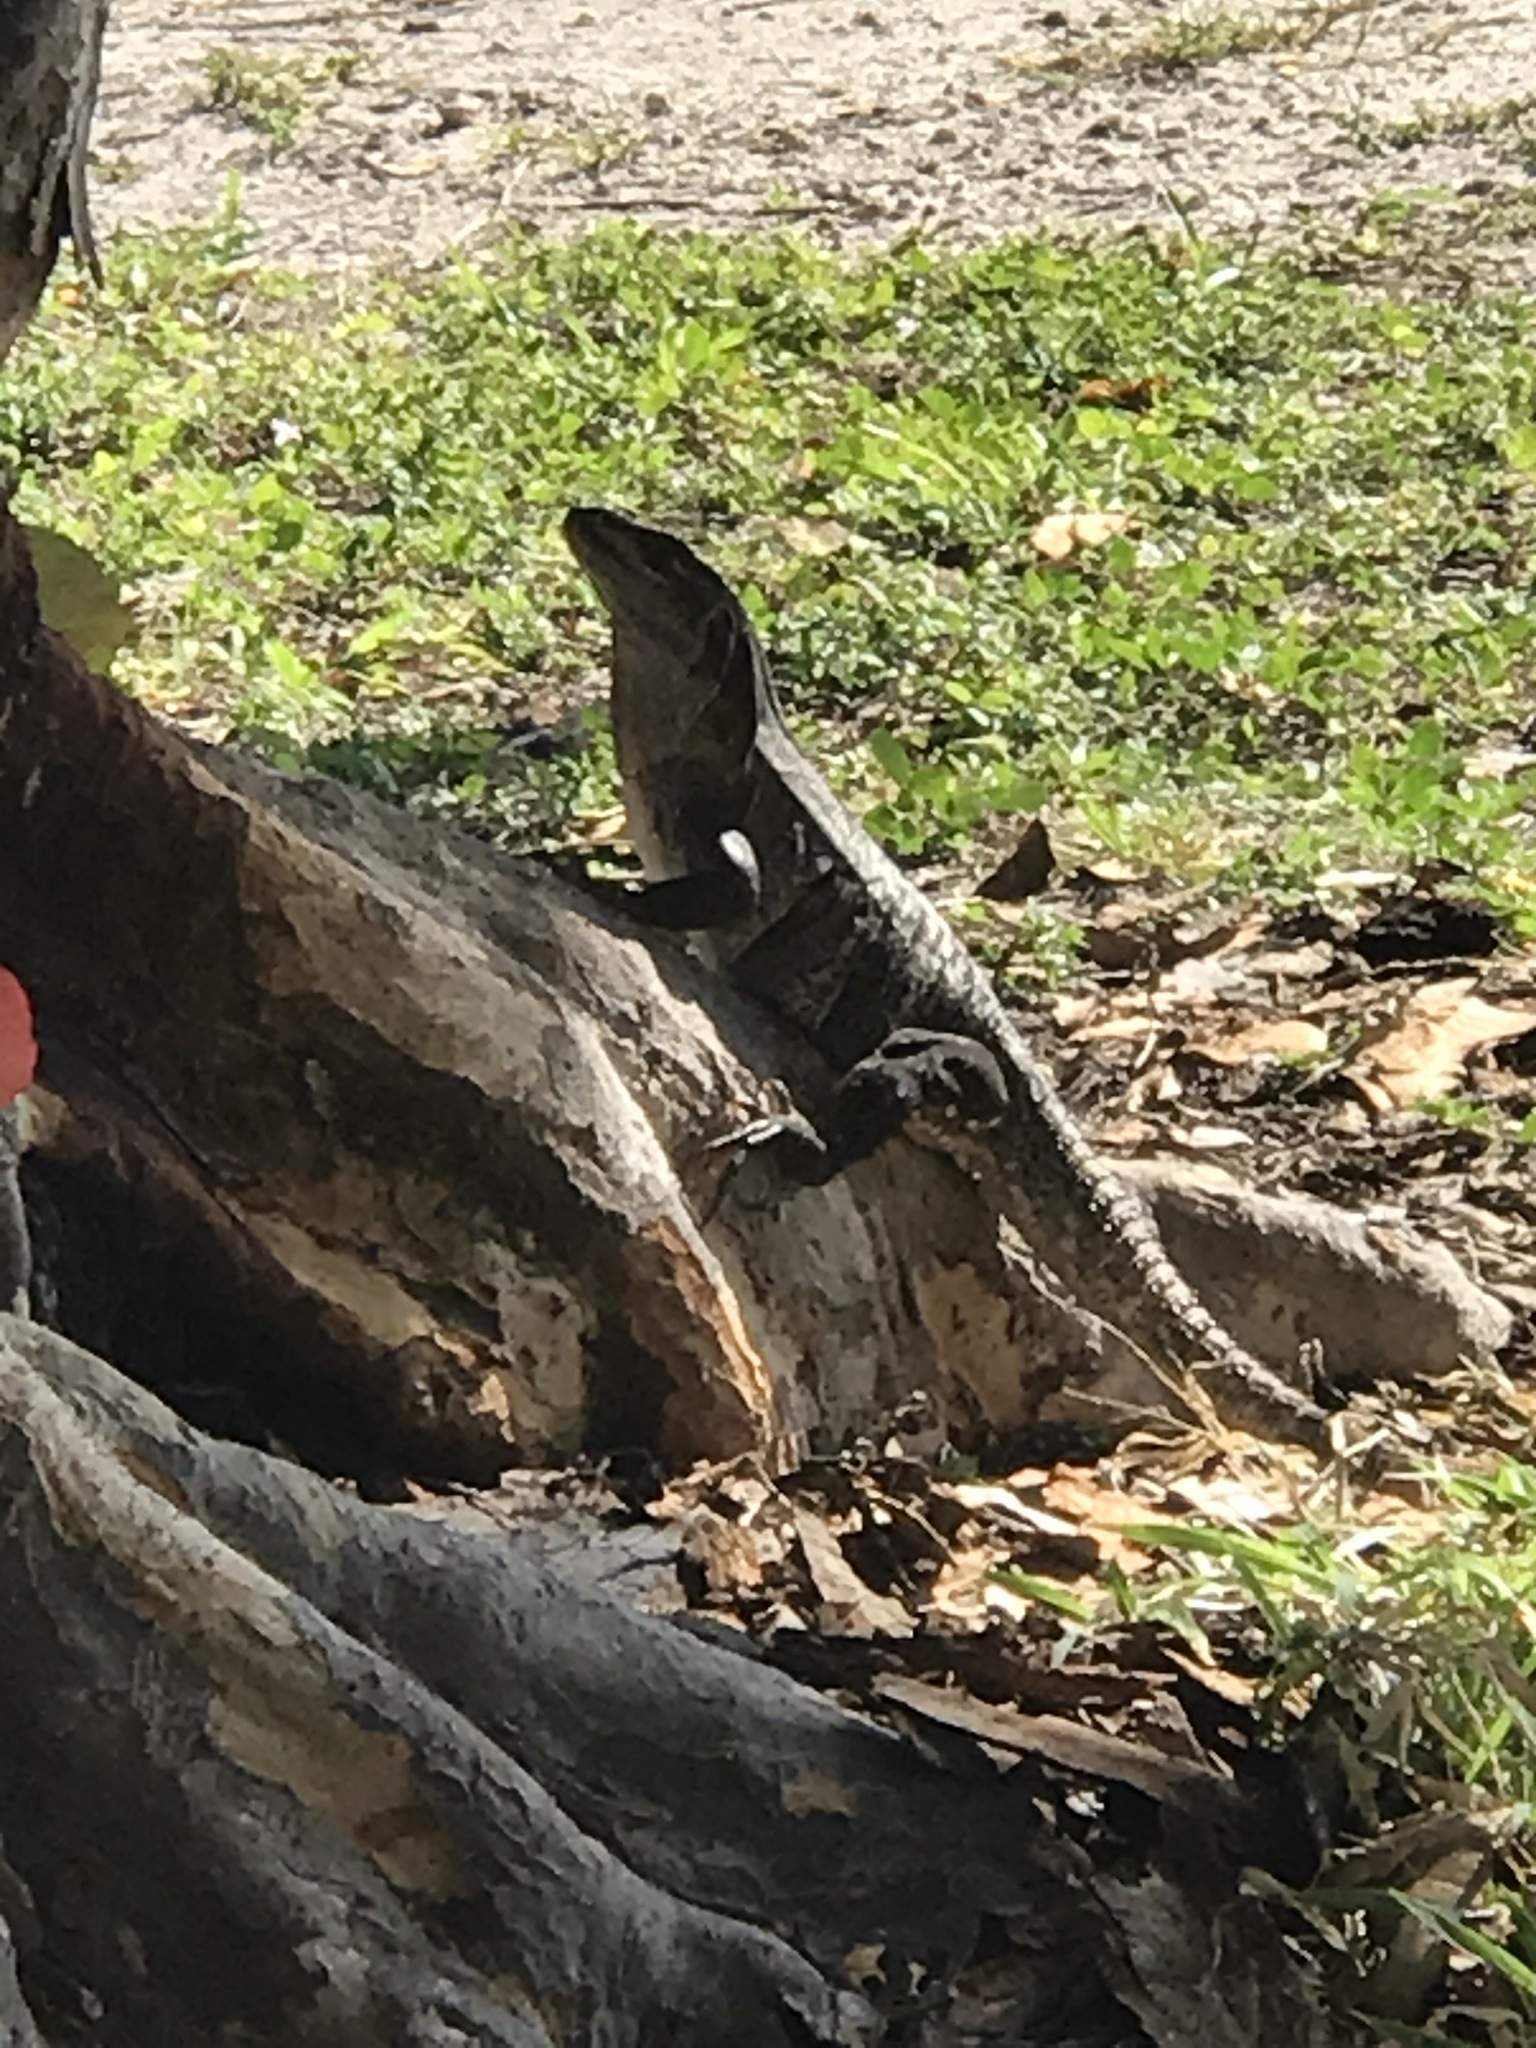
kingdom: Animalia
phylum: Chordata
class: Squamata
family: Iguanidae
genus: Ctenosaura
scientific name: Ctenosaura similis
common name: Black spiny-tailed iguana
